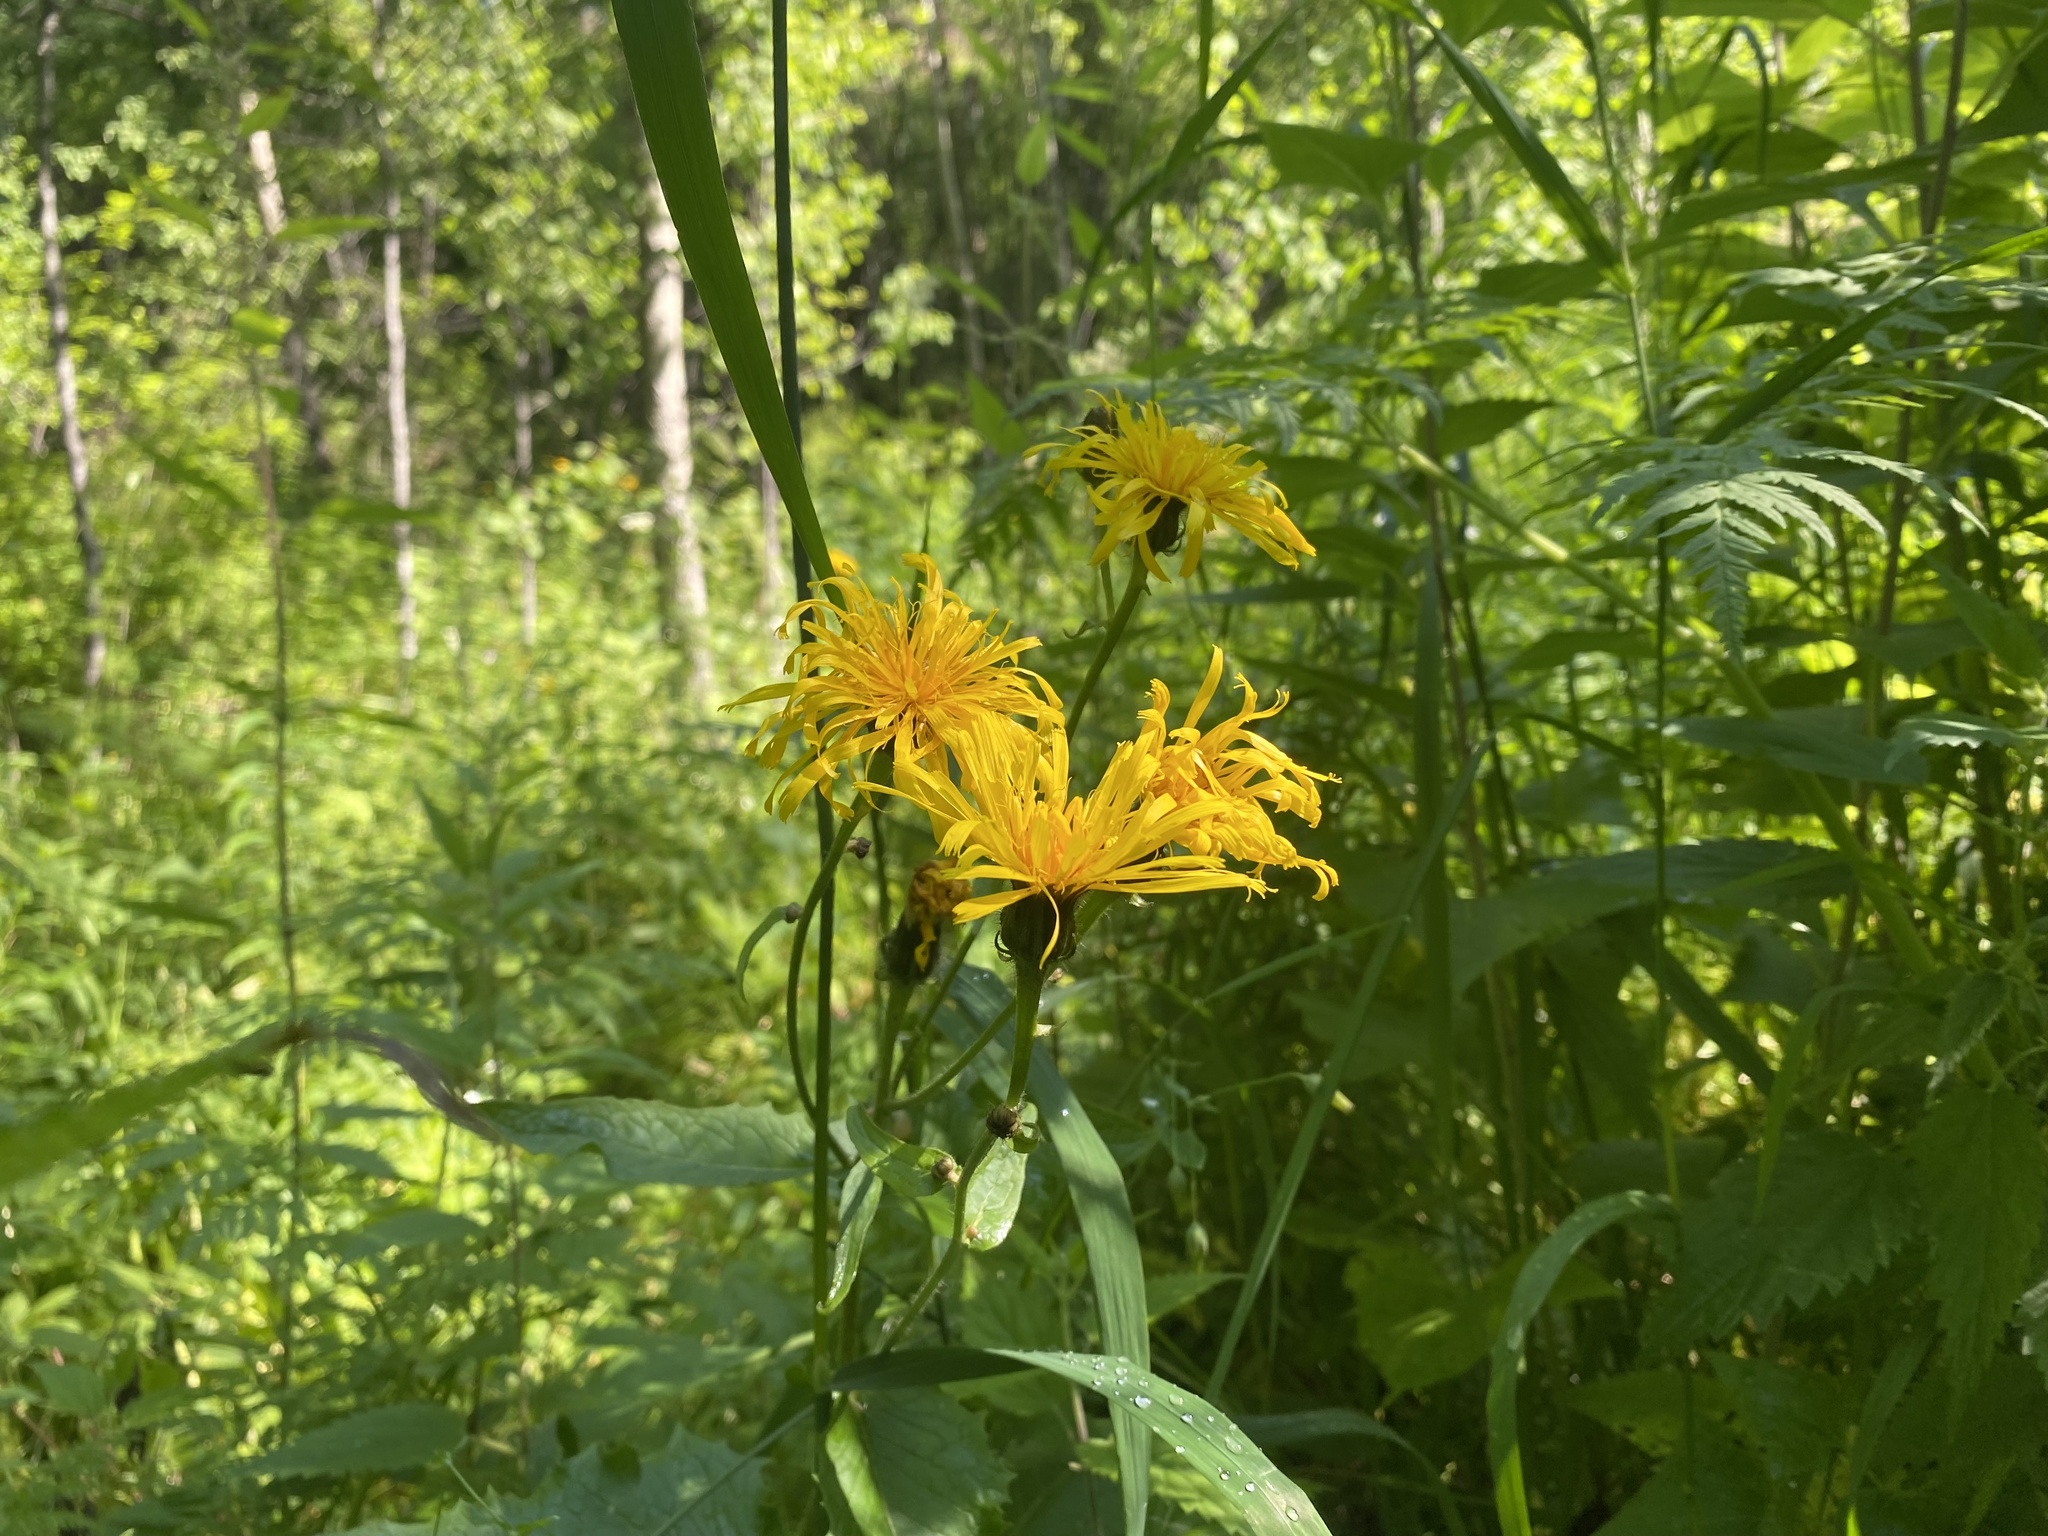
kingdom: Plantae
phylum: Tracheophyta
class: Magnoliopsida
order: Asterales
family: Asteraceae
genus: Crepis
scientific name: Crepis sibirica
